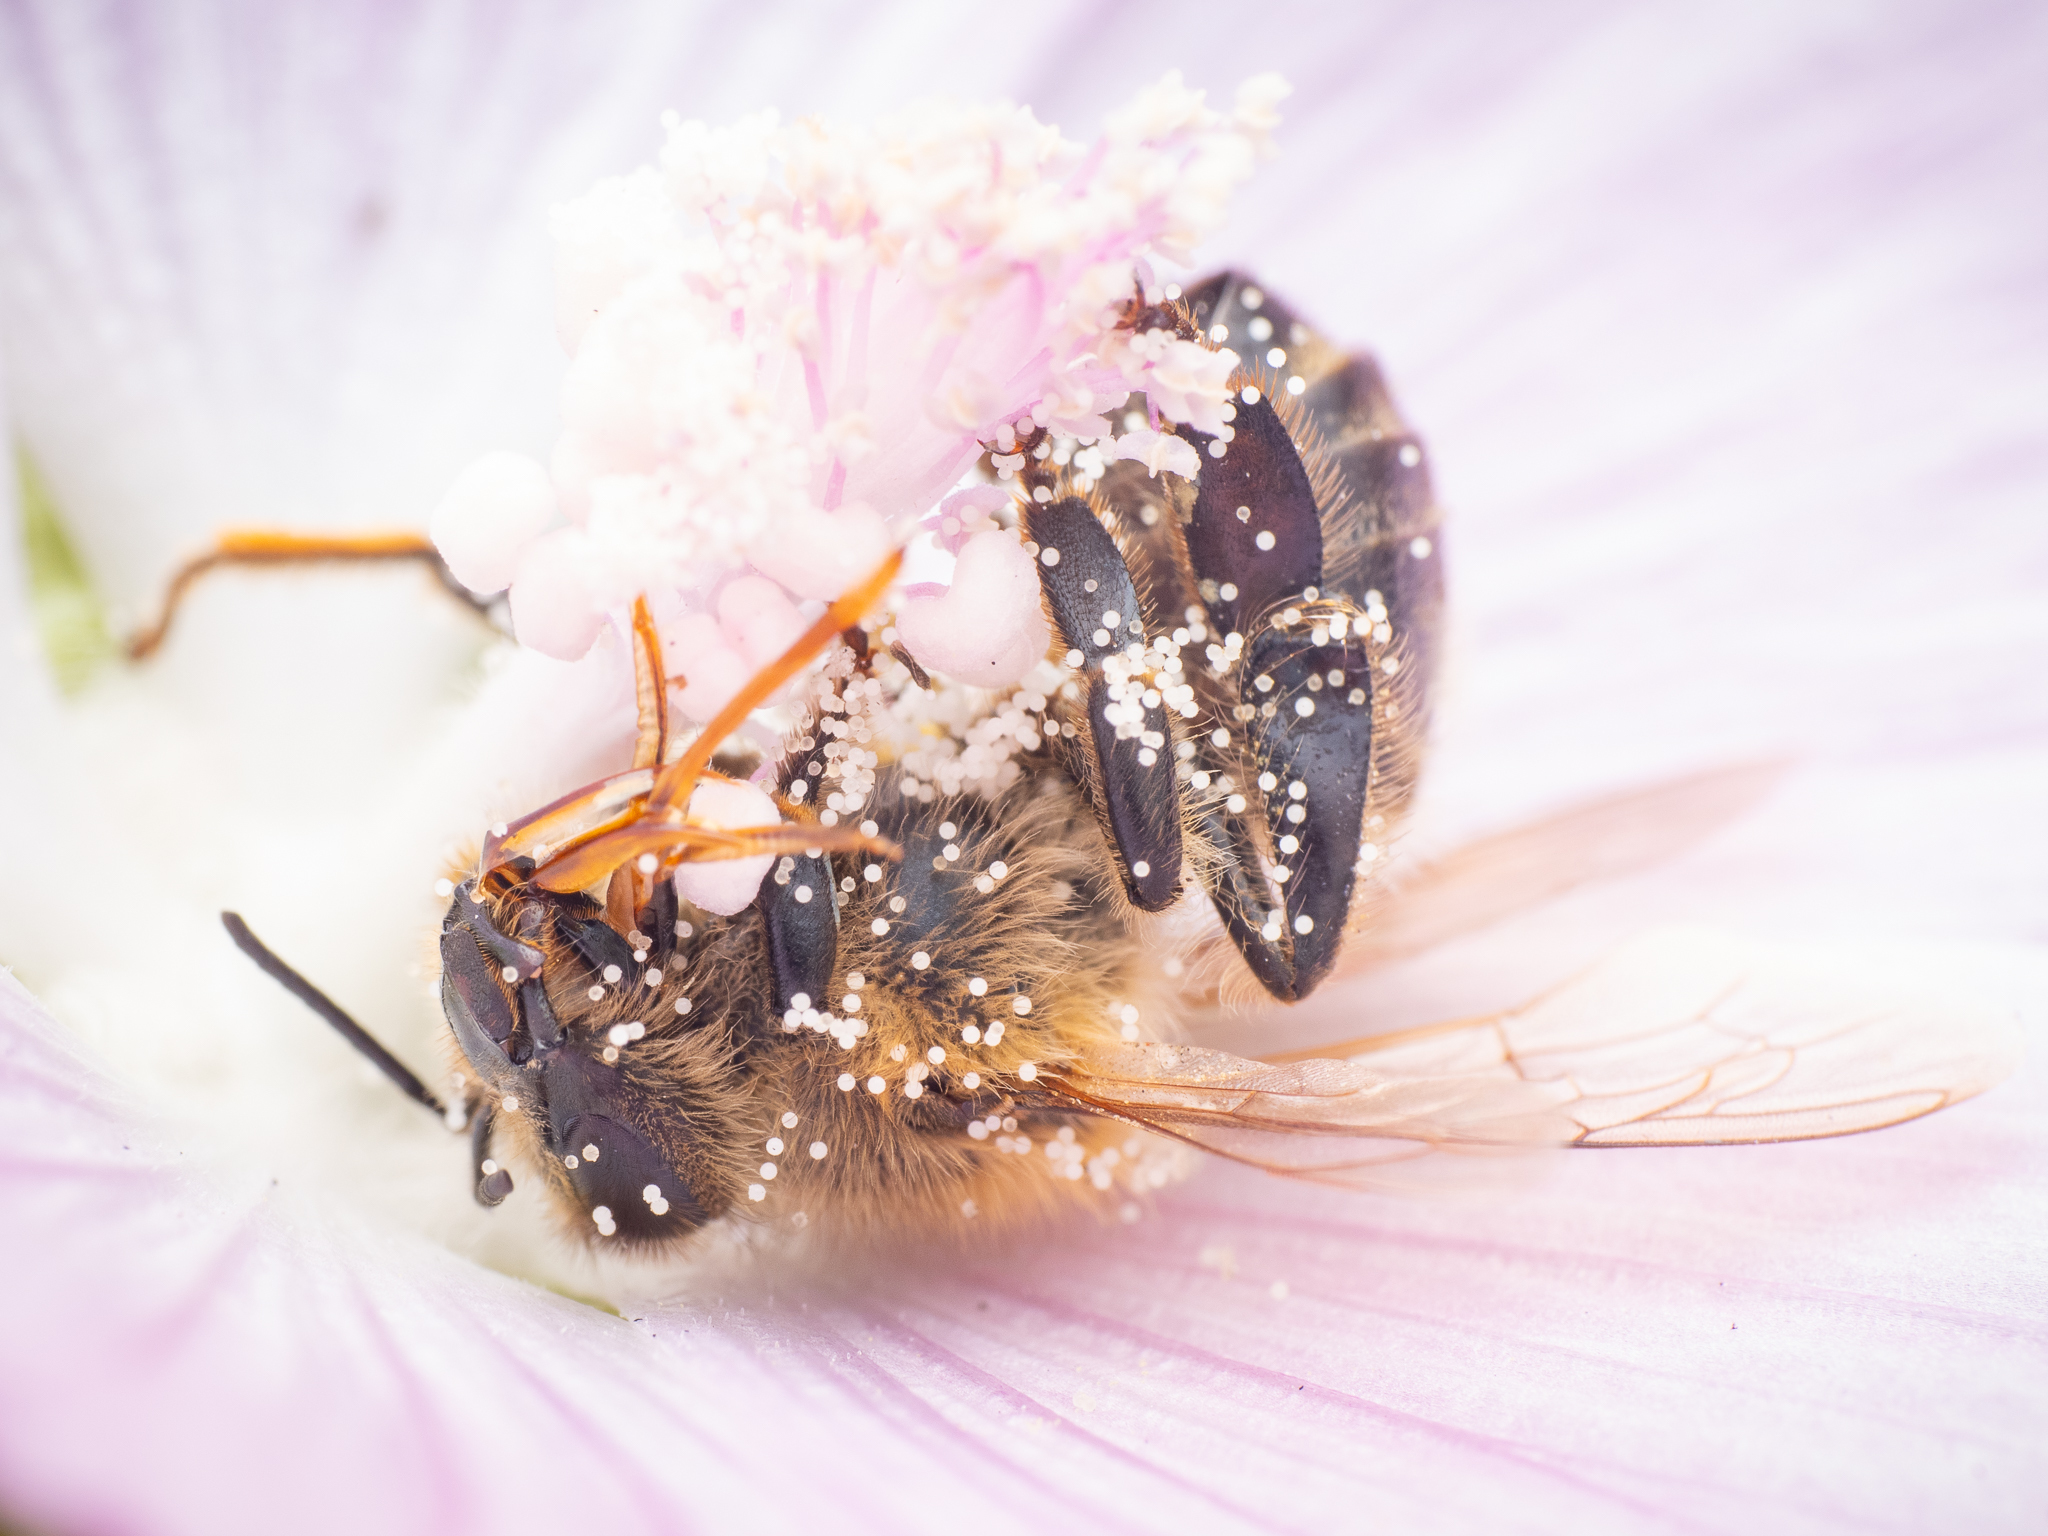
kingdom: Animalia
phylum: Arthropoda
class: Insecta
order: Hymenoptera
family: Apidae
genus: Apis
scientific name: Apis mellifera
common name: Honey bee
